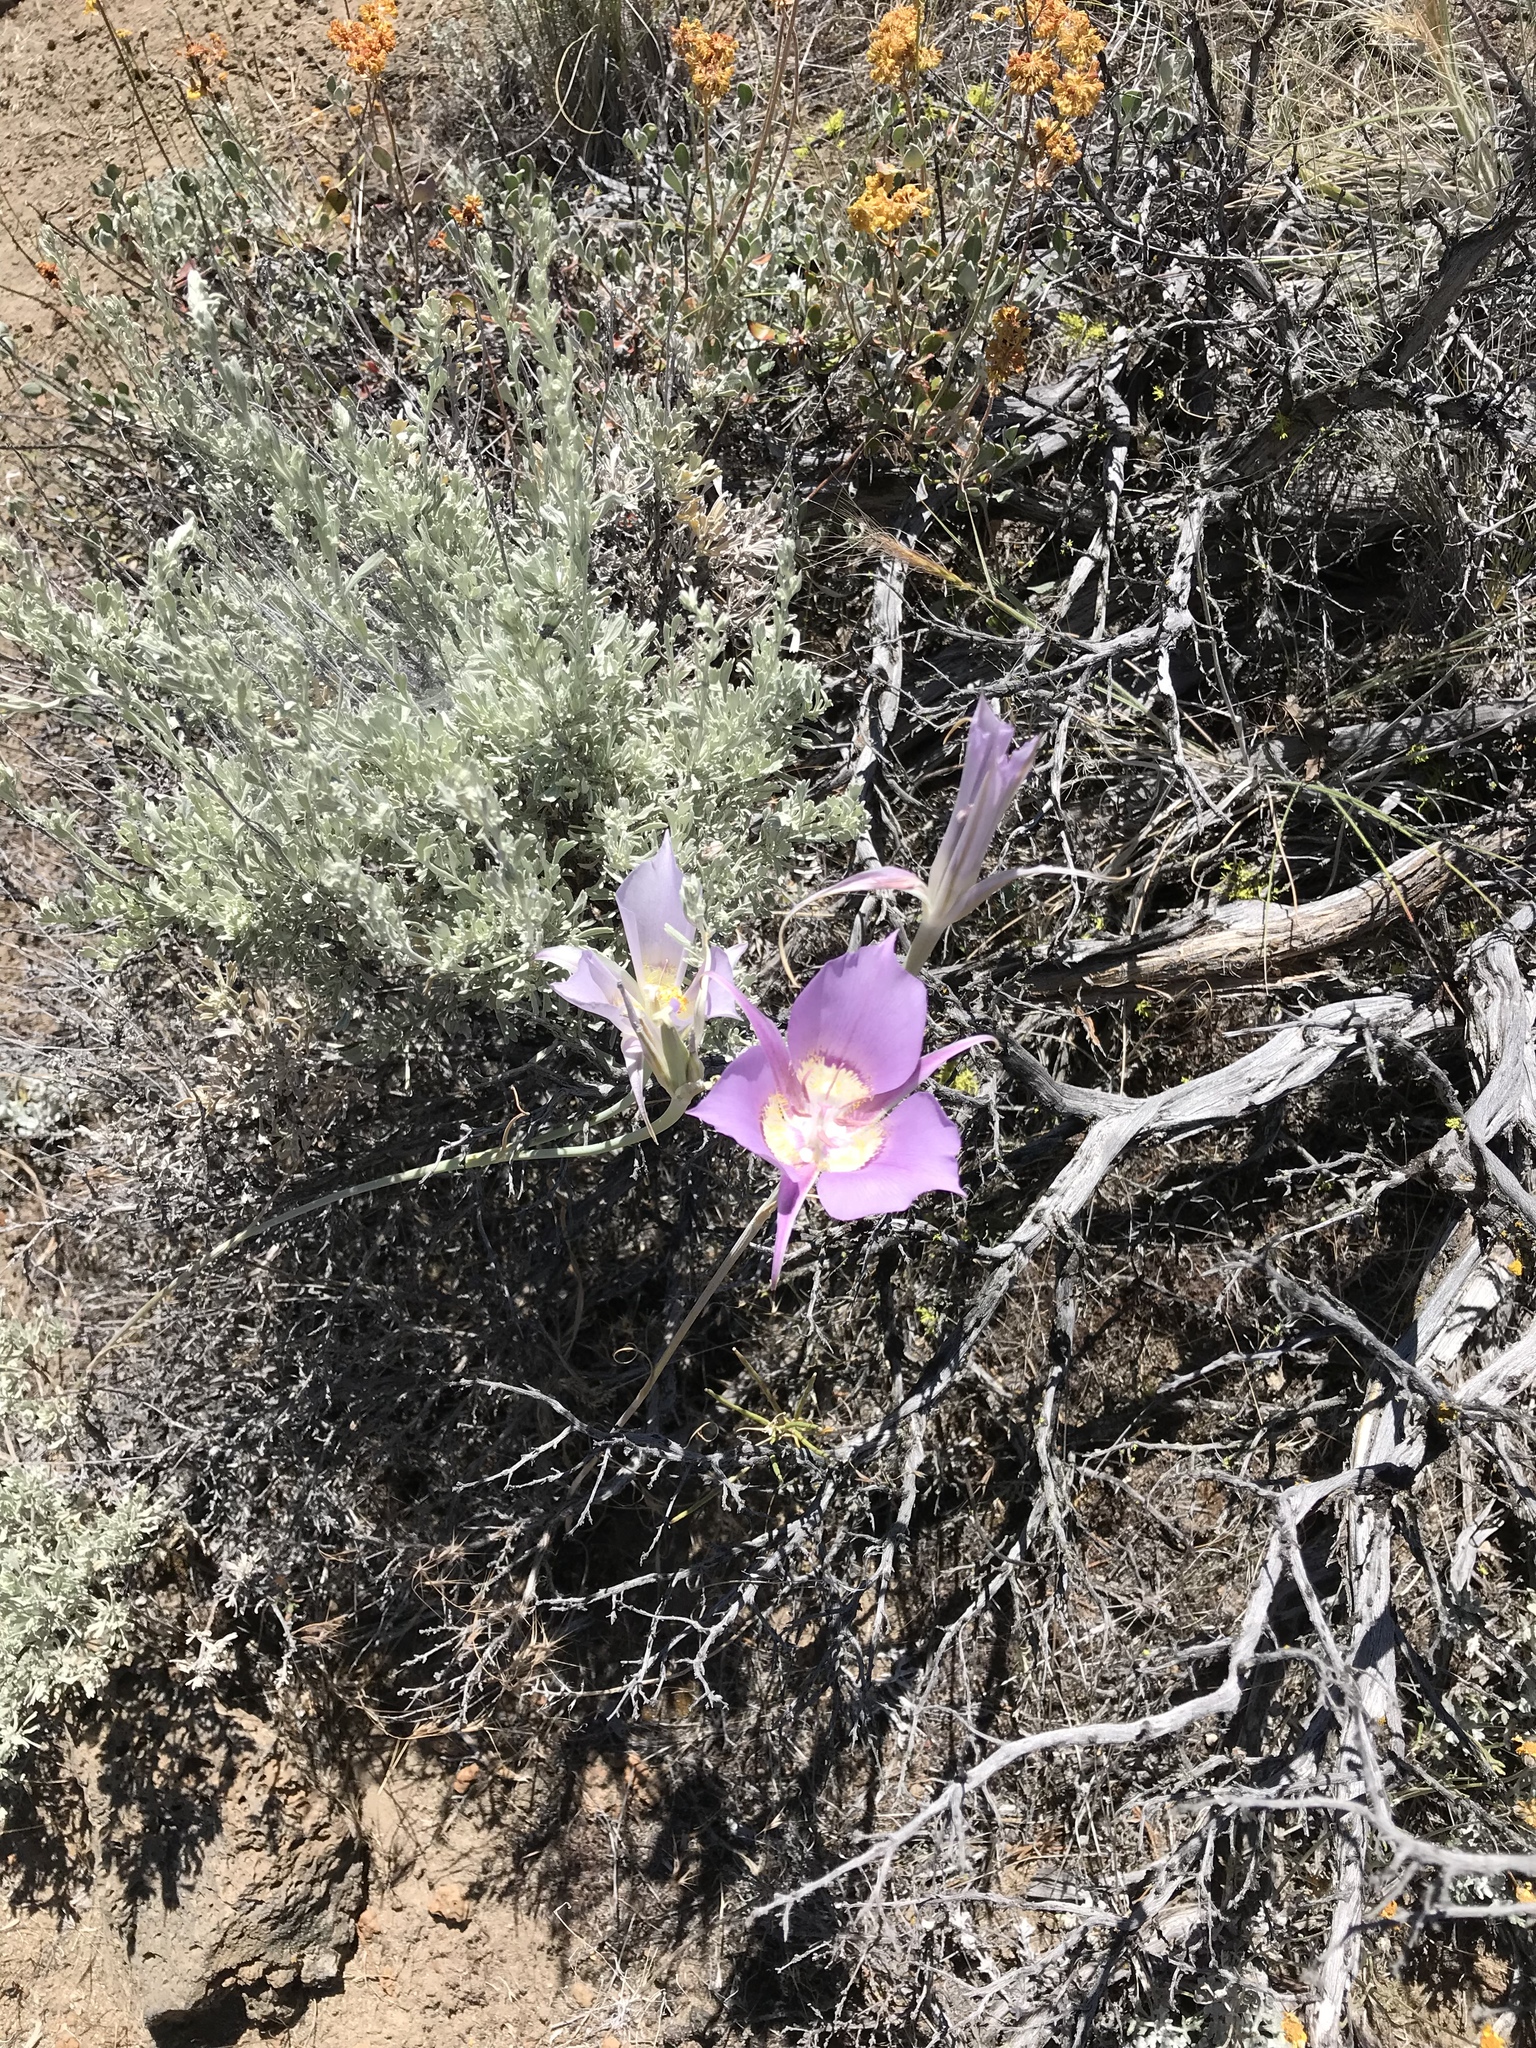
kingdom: Plantae
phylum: Tracheophyta
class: Liliopsida
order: Liliales
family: Liliaceae
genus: Calochortus
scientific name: Calochortus macrocarpus
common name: Green-band mariposa lily
